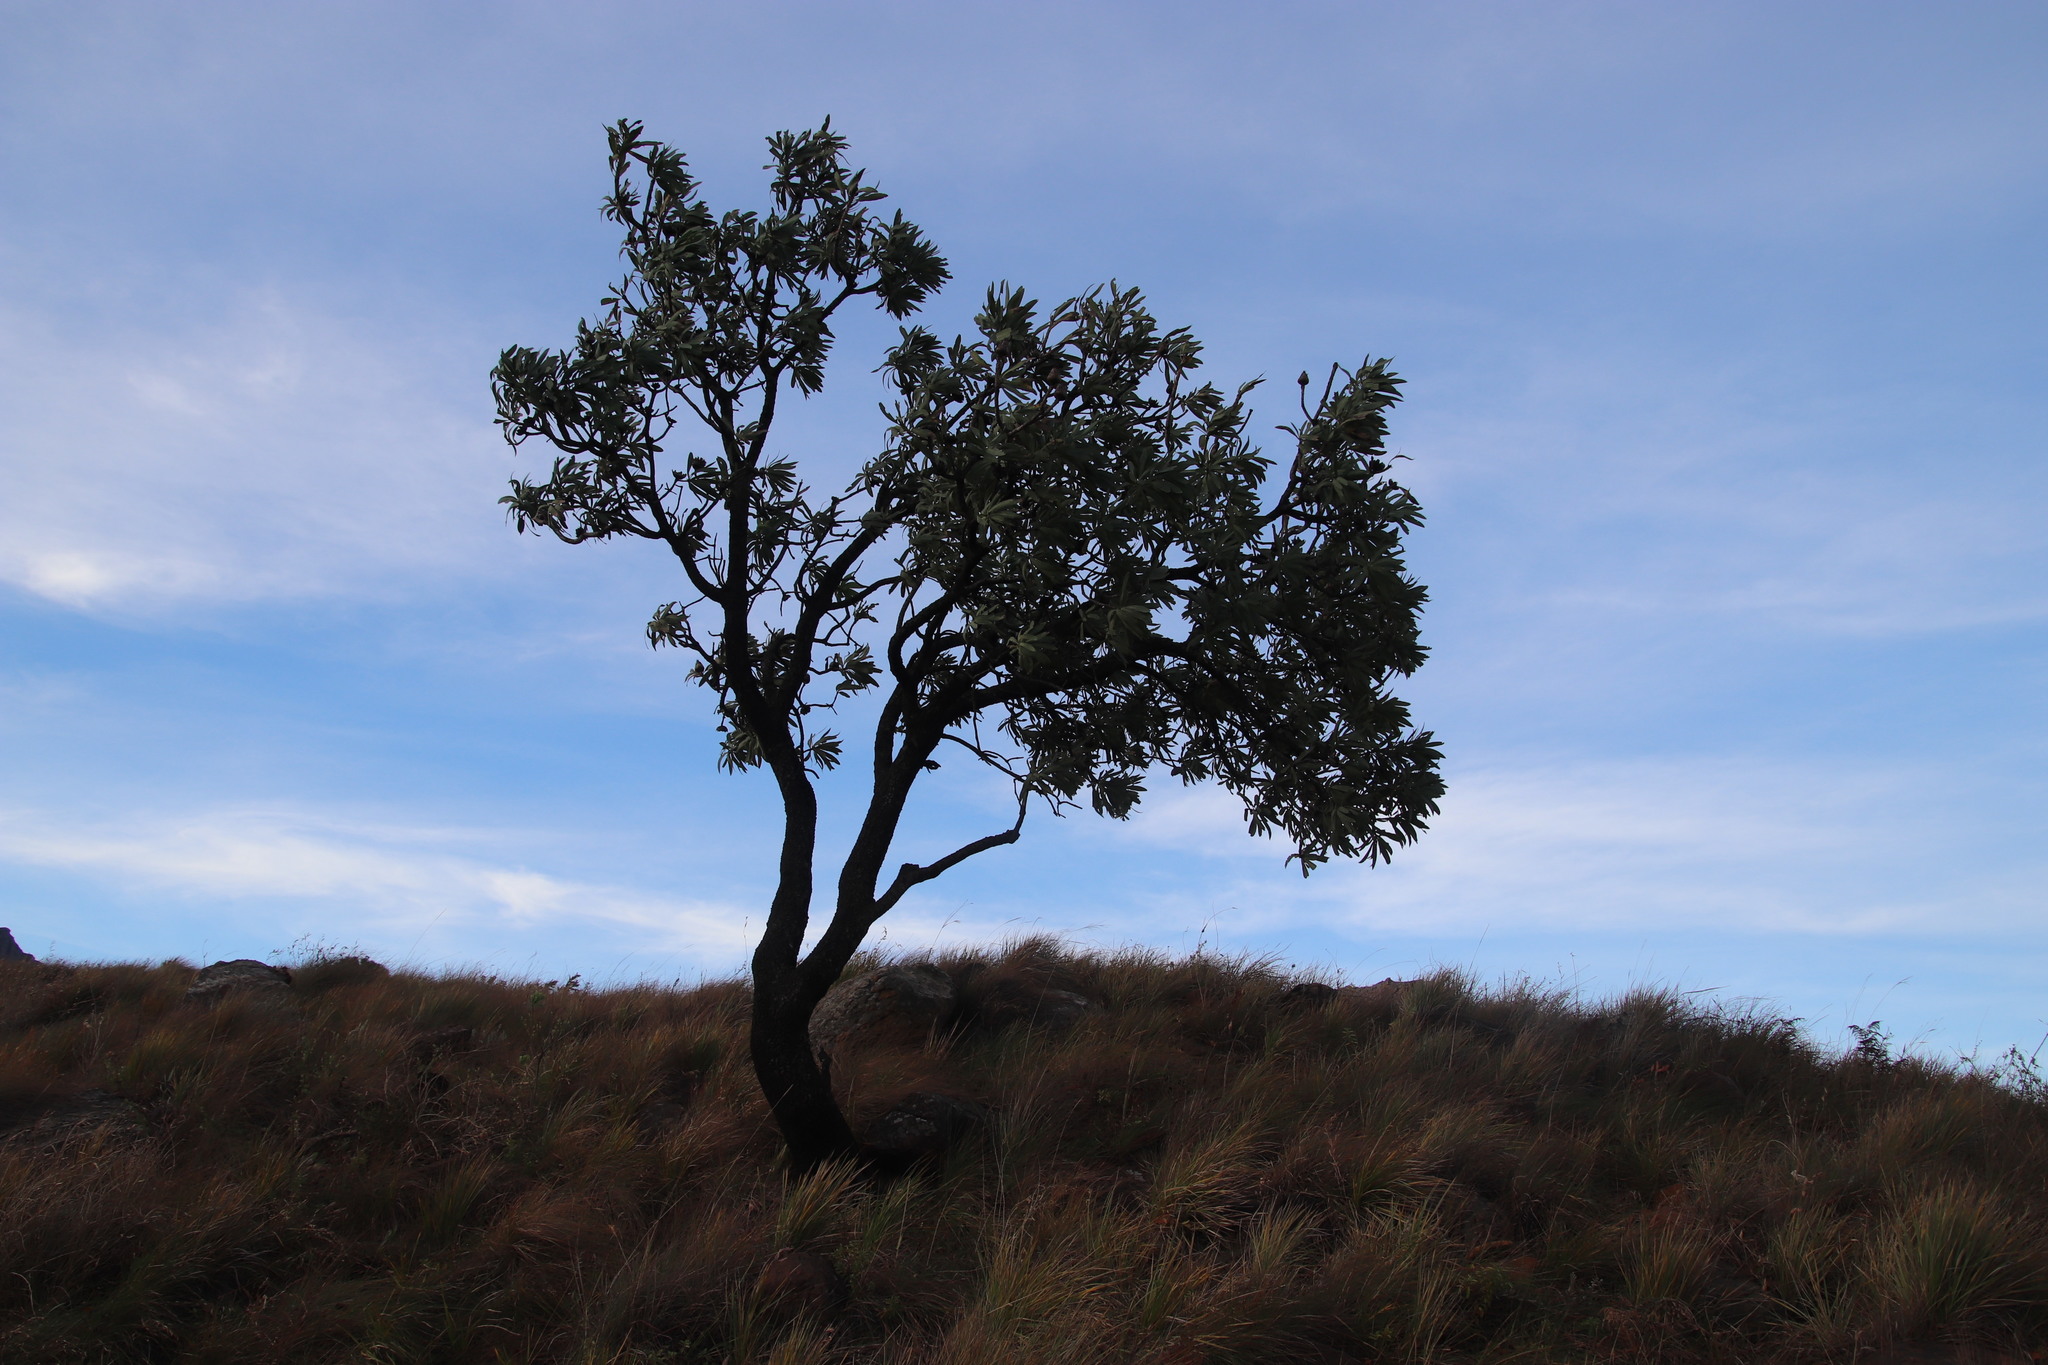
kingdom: Plantae
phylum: Tracheophyta
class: Magnoliopsida
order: Proteales
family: Proteaceae
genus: Protea
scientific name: Protea caffra
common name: Common sugarbush
